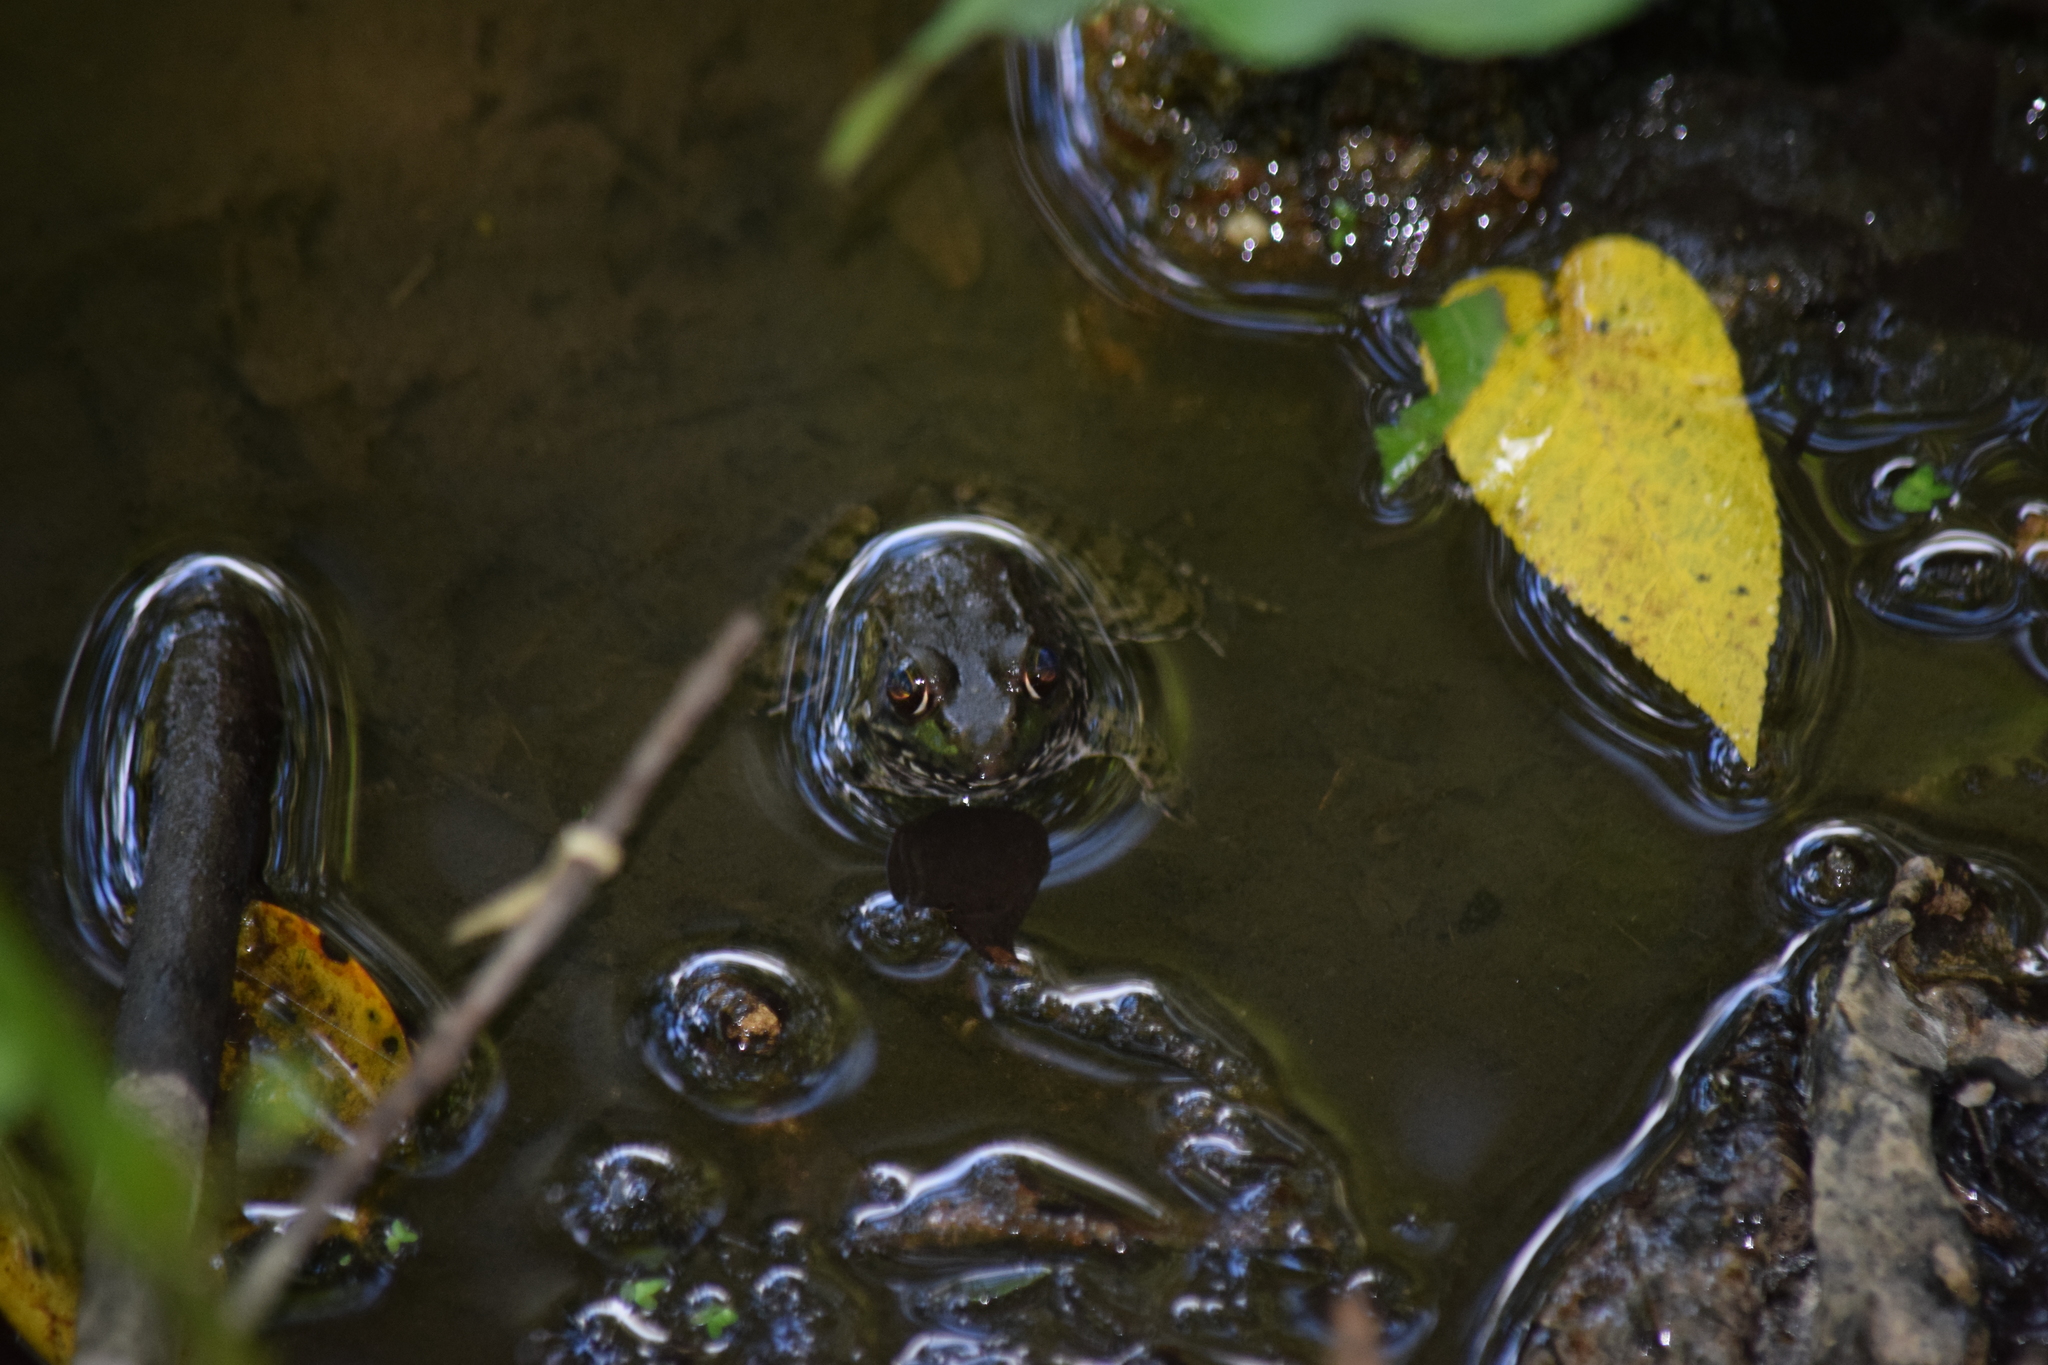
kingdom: Animalia
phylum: Chordata
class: Amphibia
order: Anura
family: Ranidae
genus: Lithobates
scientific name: Lithobates clamitans
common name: Green frog
